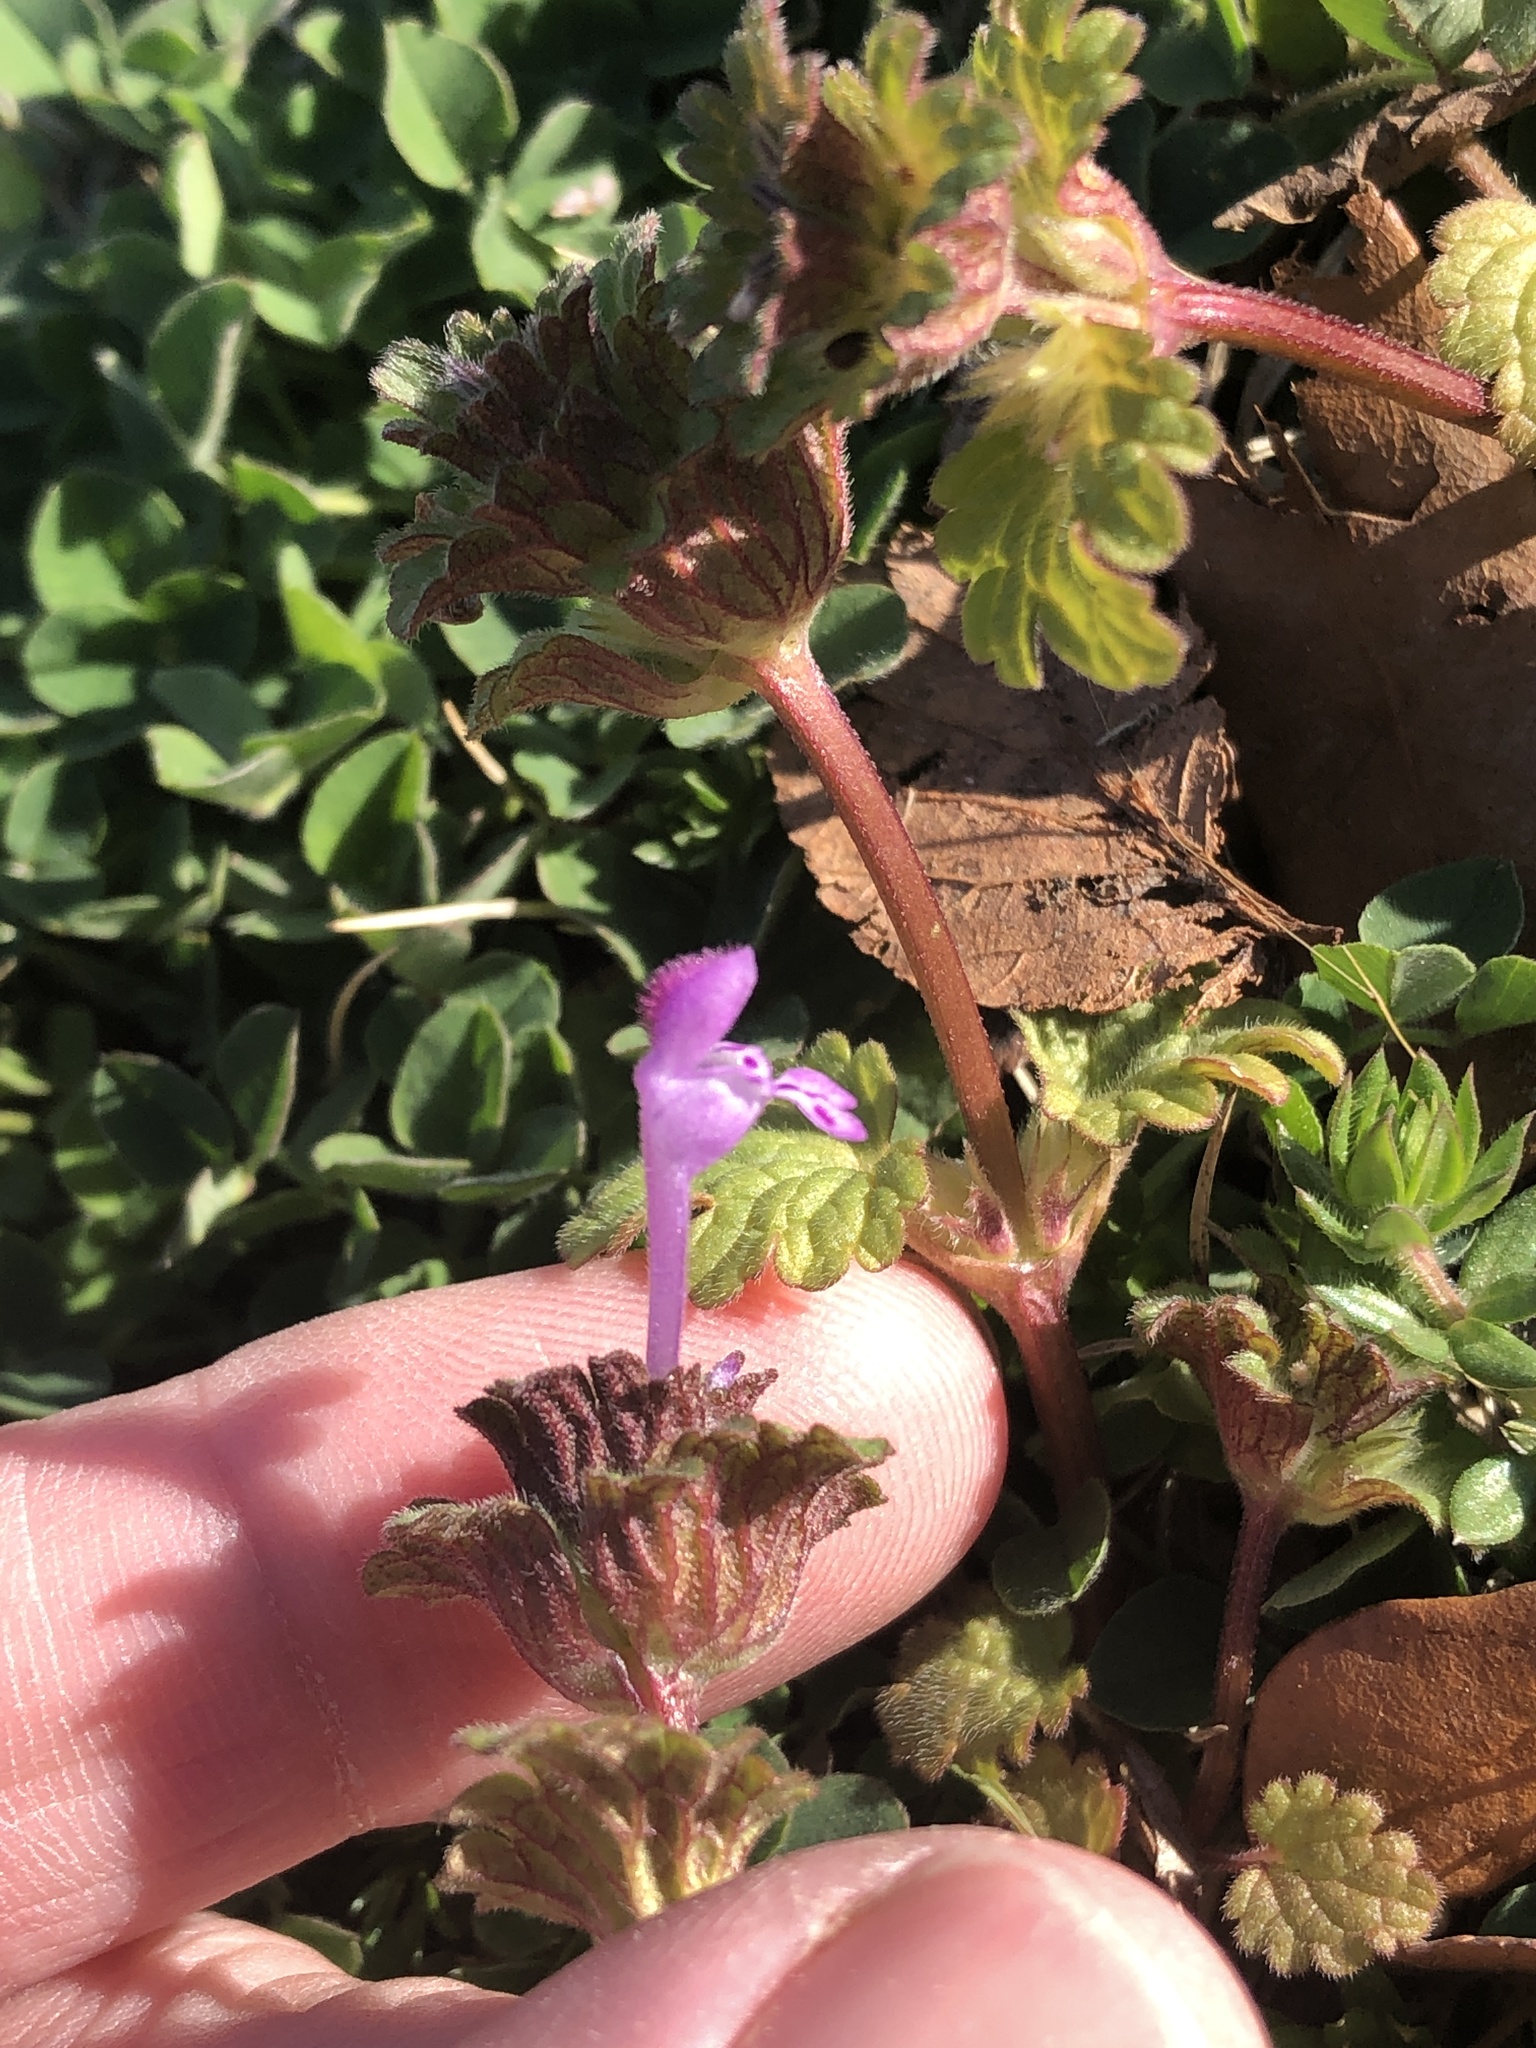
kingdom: Plantae
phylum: Tracheophyta
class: Magnoliopsida
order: Lamiales
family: Lamiaceae
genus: Lamium
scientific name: Lamium amplexicaule
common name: Henbit dead-nettle
